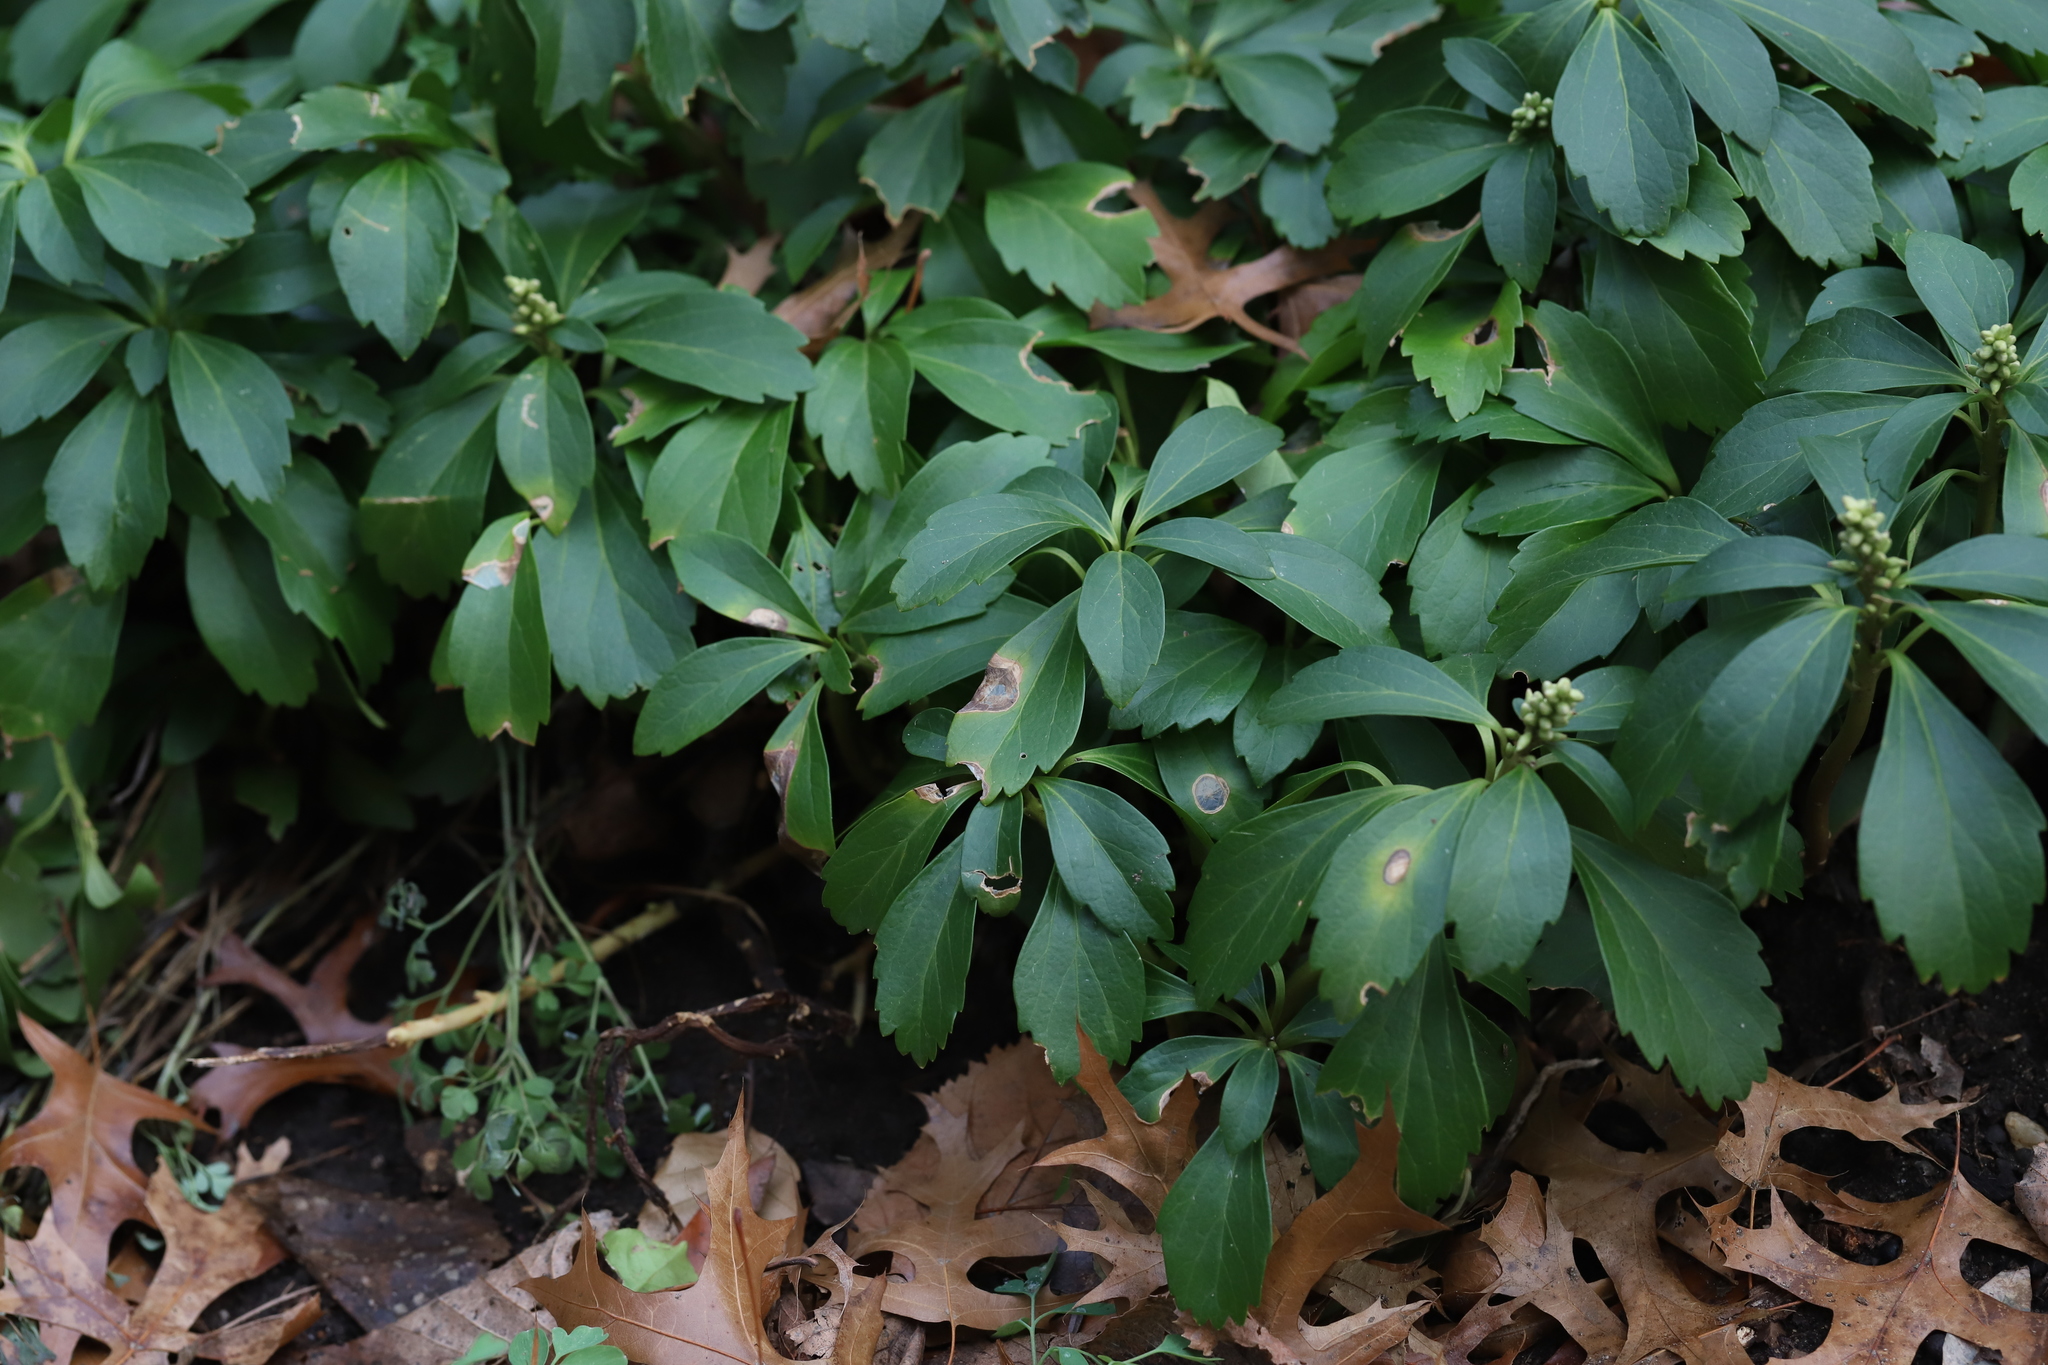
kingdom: Fungi
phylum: Ascomycota
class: Sordariomycetes
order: Hypocreales
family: Nectriaceae
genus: Volutella
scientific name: Volutella pachysandrae
